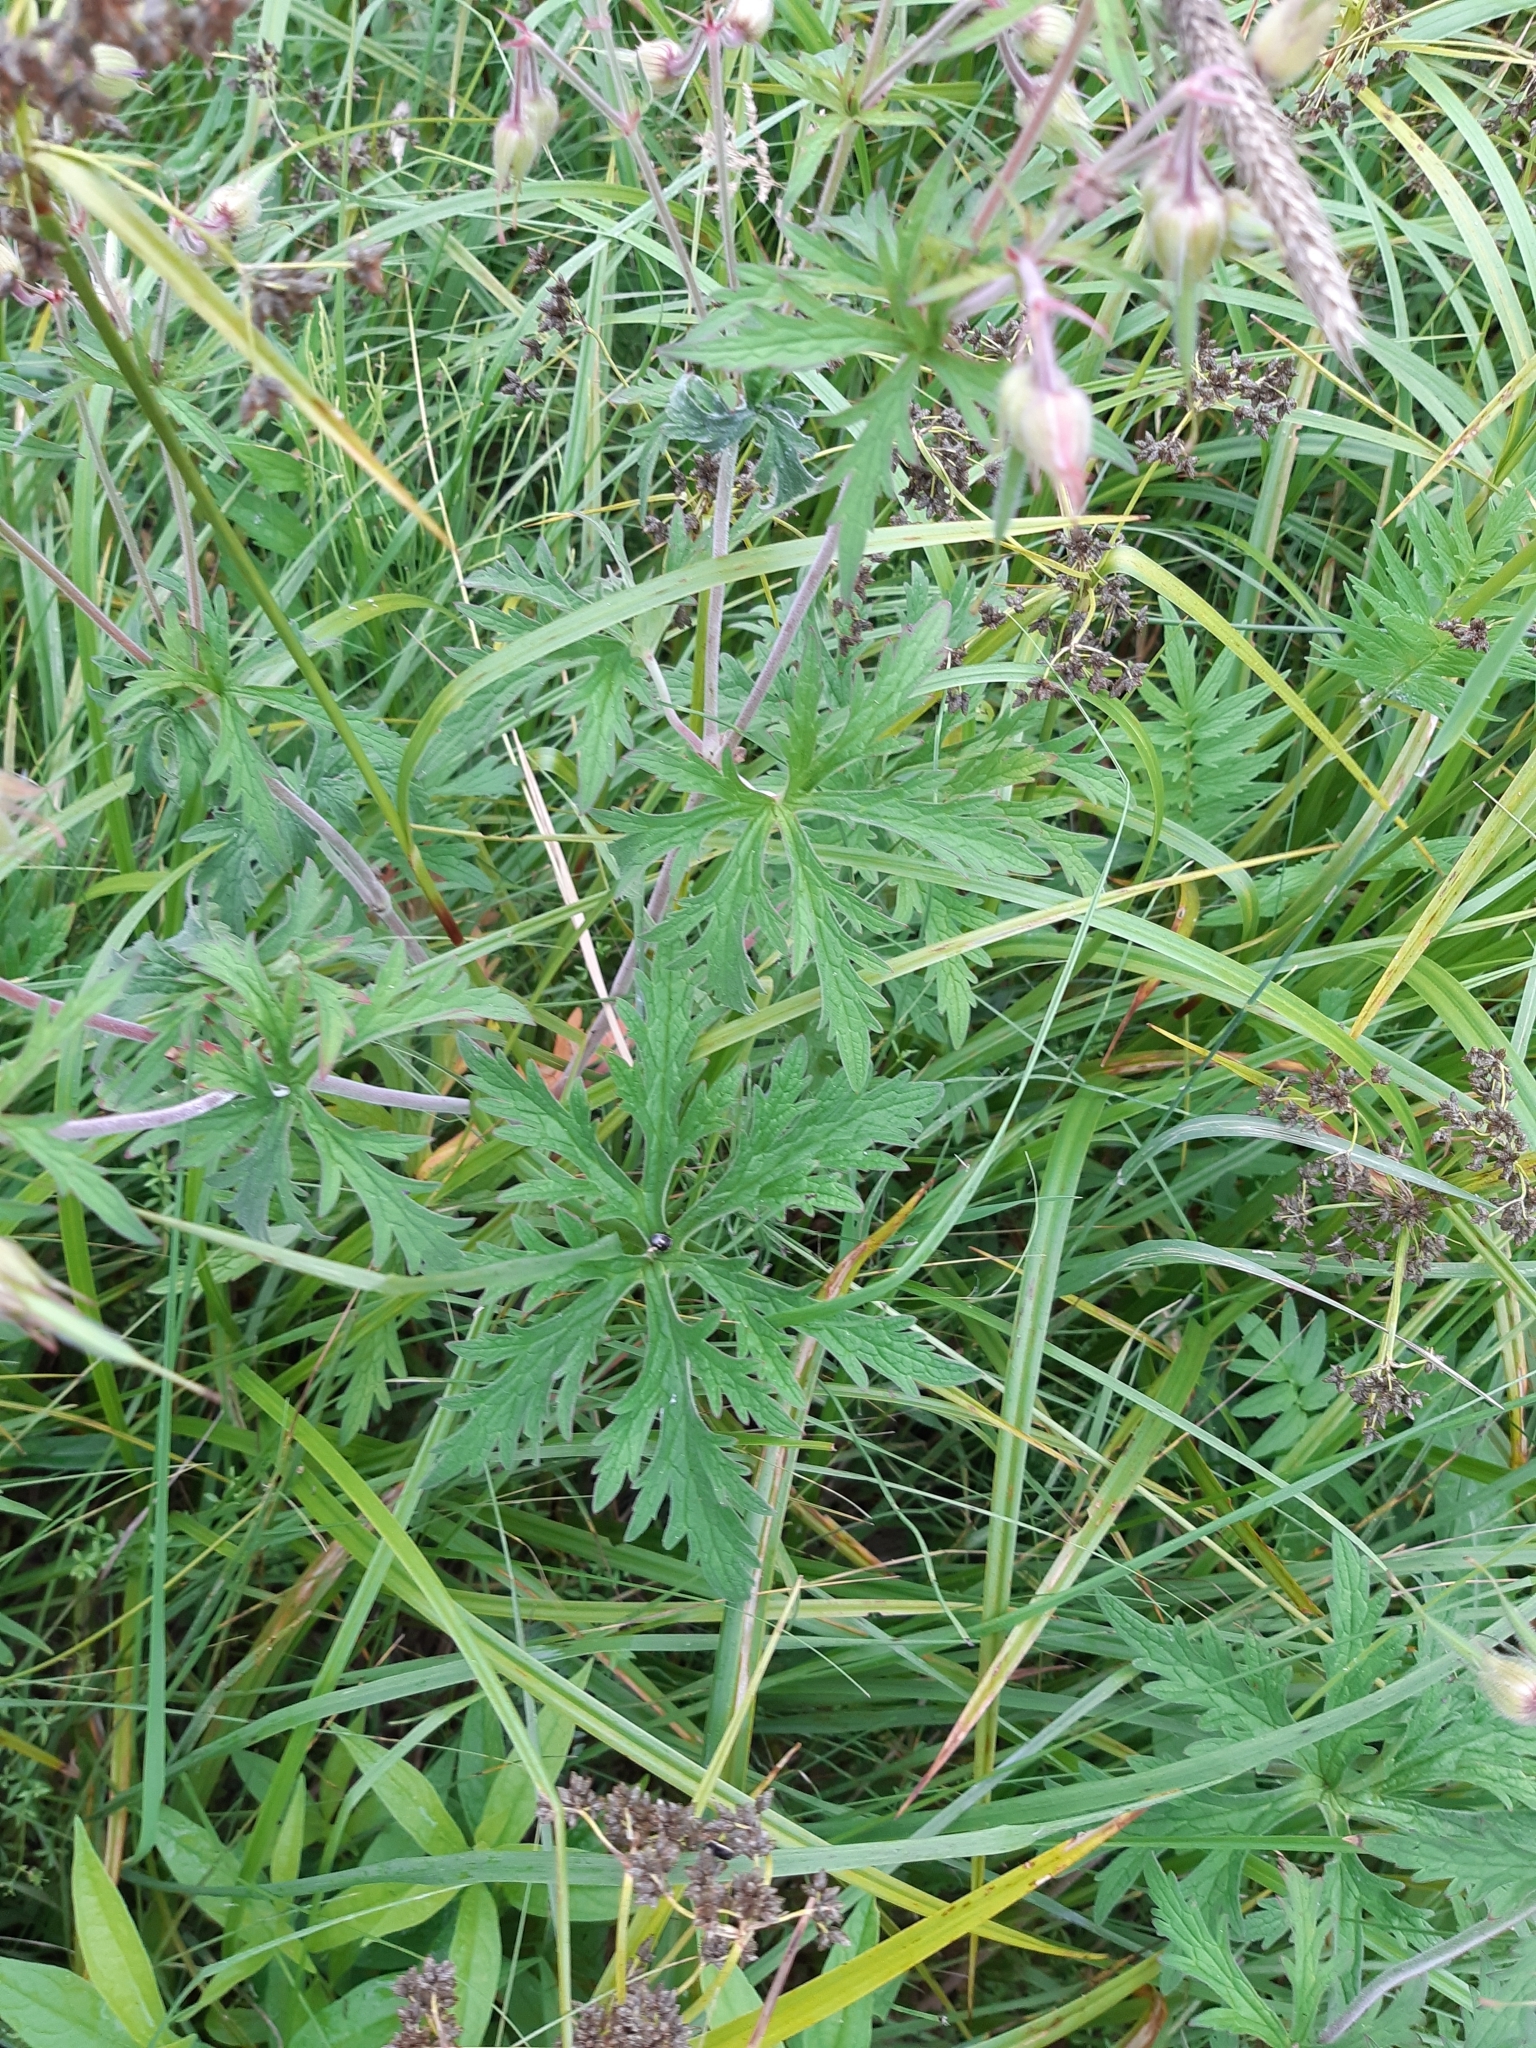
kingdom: Plantae
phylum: Tracheophyta
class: Magnoliopsida
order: Geraniales
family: Geraniaceae
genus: Geranium
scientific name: Geranium pratense
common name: Meadow crane's-bill
